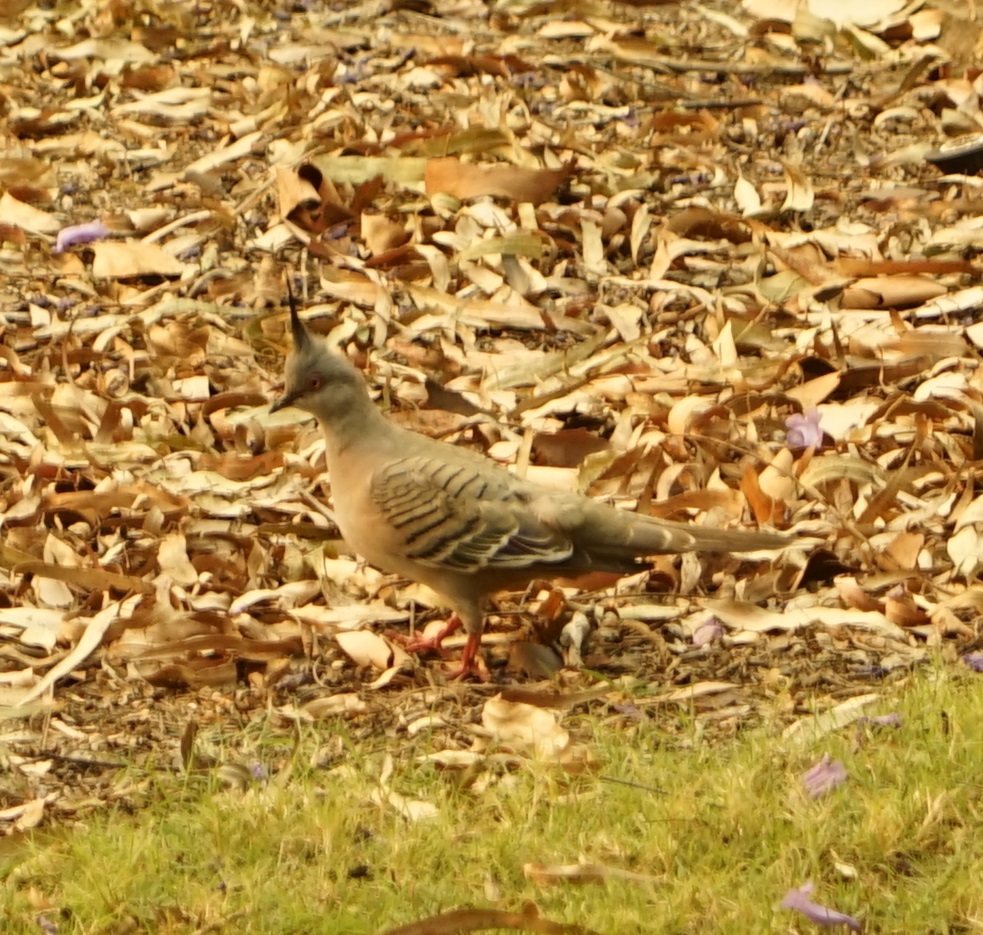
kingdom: Animalia
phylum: Chordata
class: Aves
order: Columbiformes
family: Columbidae
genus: Ocyphaps
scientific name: Ocyphaps lophotes
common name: Crested pigeon
